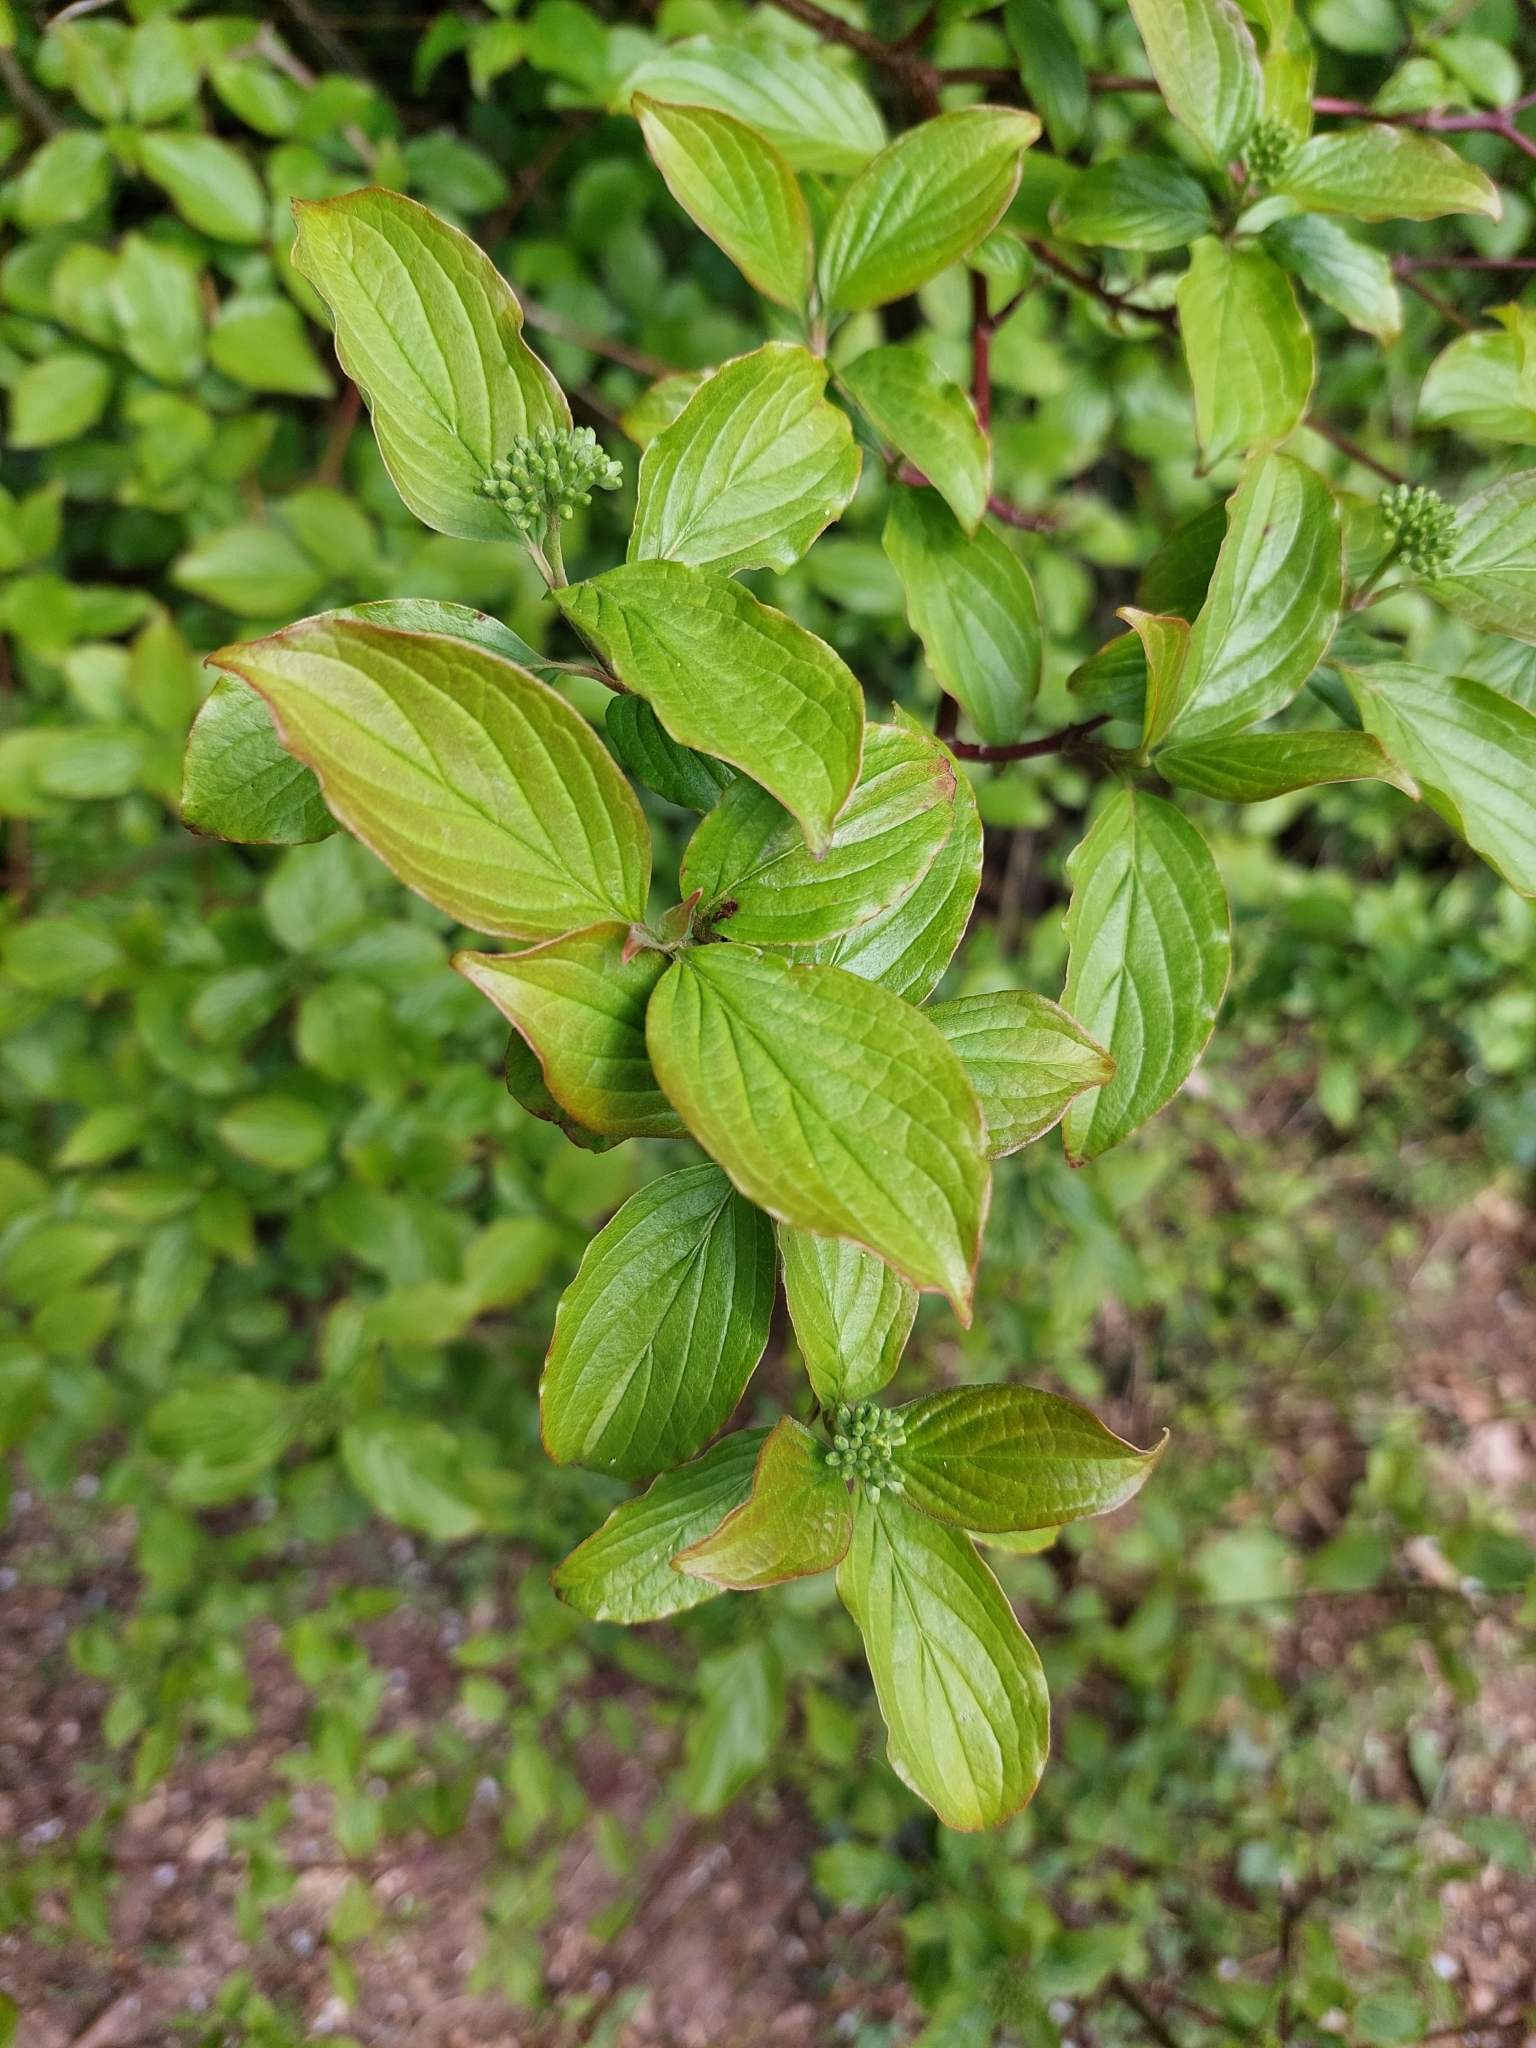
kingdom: Plantae
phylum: Tracheophyta
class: Magnoliopsida
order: Cornales
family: Cornaceae
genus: Cornus
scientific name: Cornus sanguinea
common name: Dogwood
